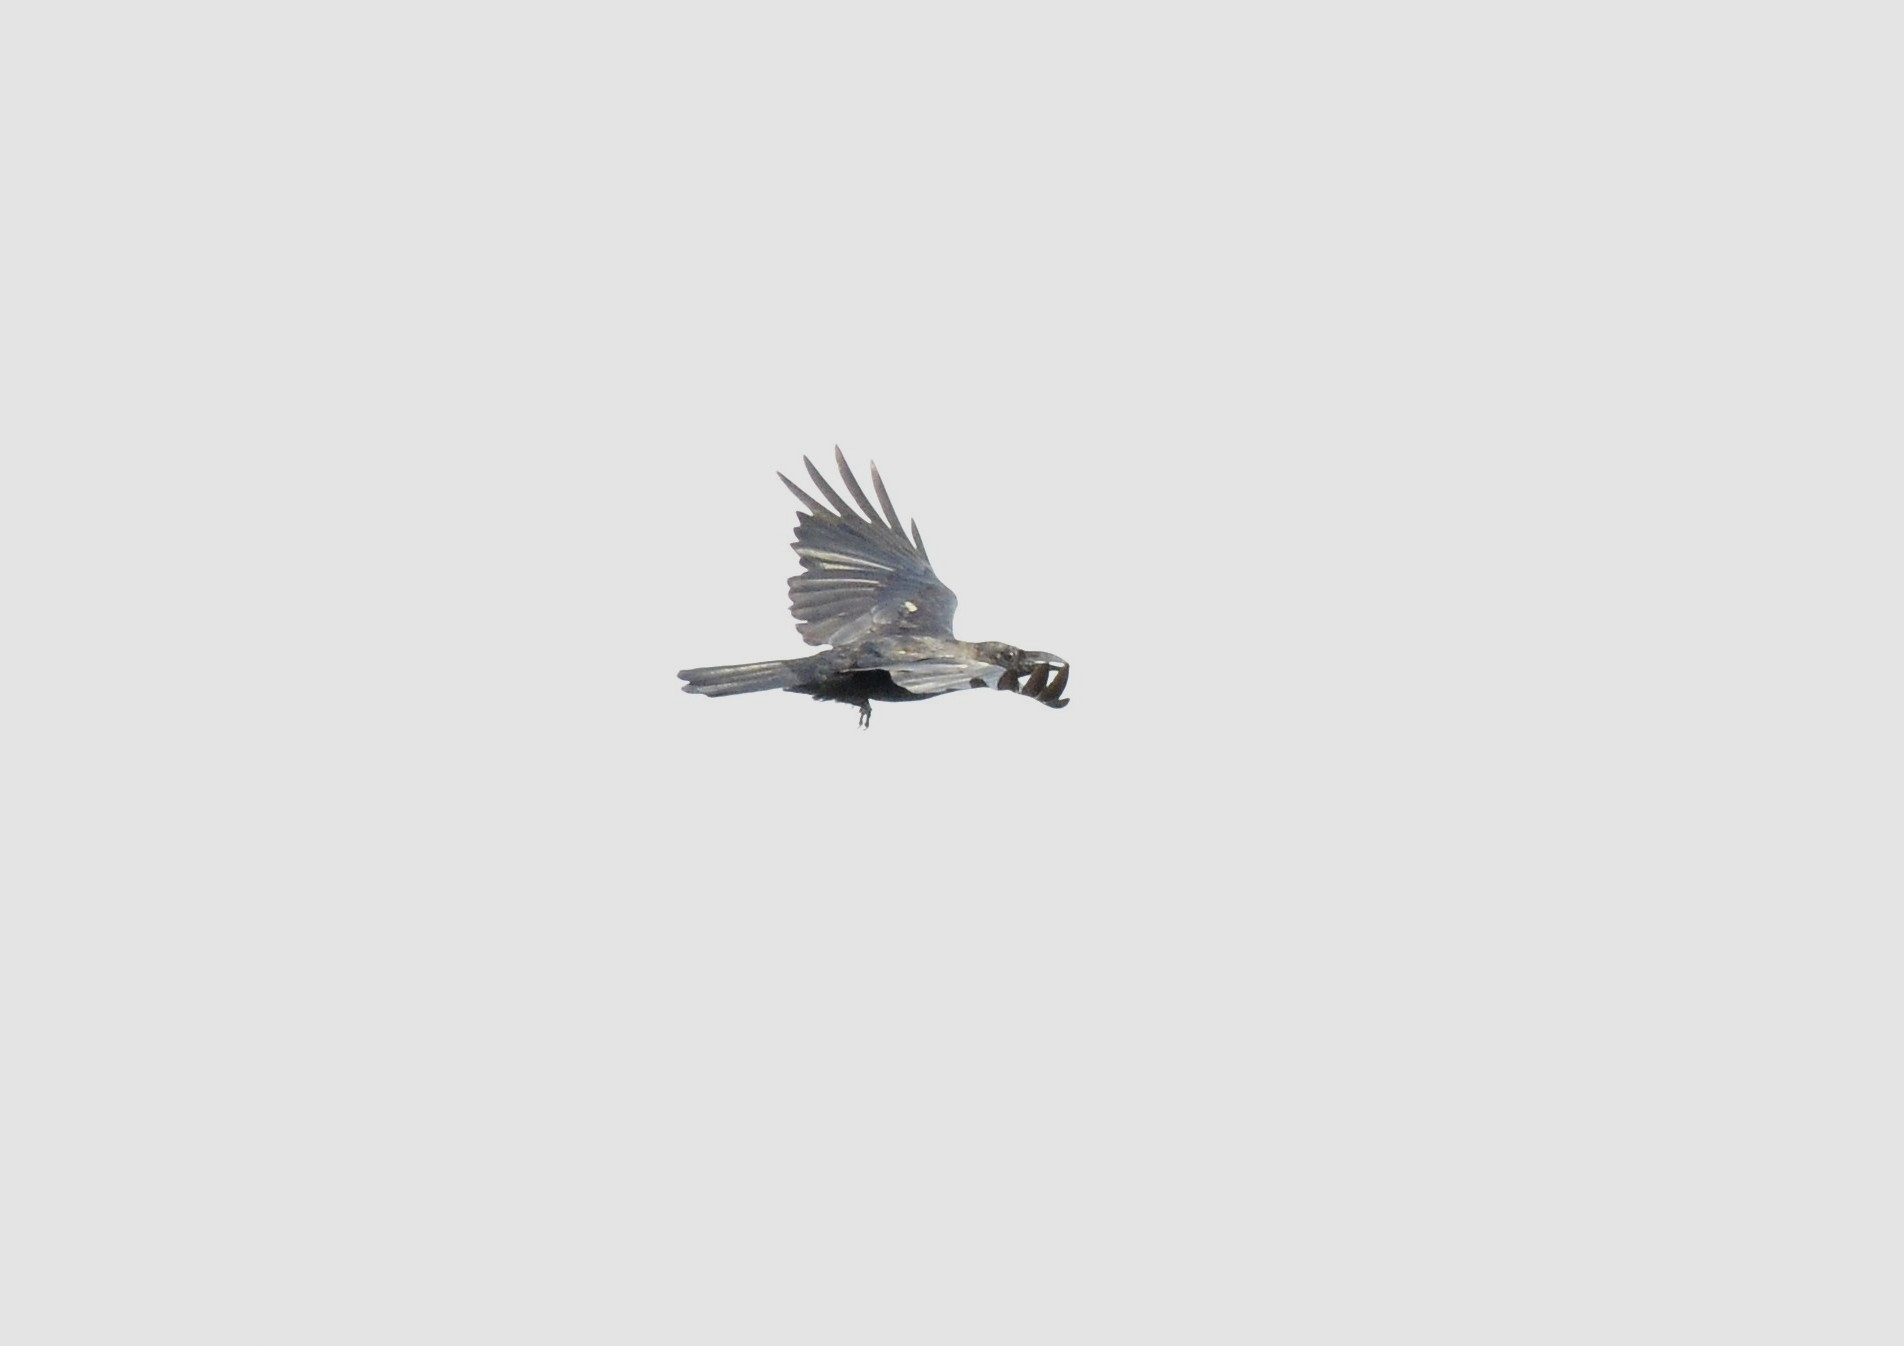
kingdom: Animalia
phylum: Chordata
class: Aves
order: Passeriformes
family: Corvidae
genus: Corvus
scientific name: Corvus macrorhynchos
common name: Large-billed crow
